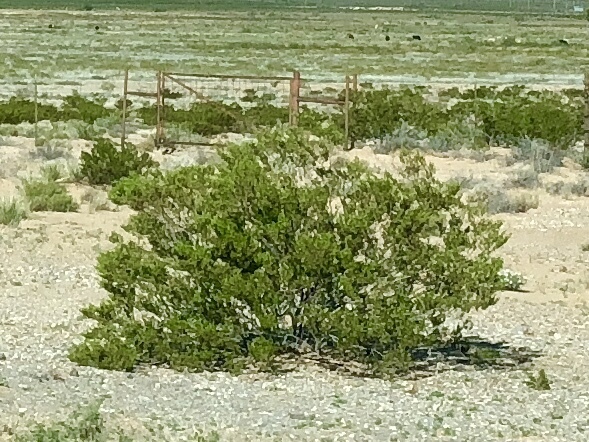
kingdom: Plantae
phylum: Tracheophyta
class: Magnoliopsida
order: Zygophyllales
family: Zygophyllaceae
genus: Larrea
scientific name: Larrea tridentata
